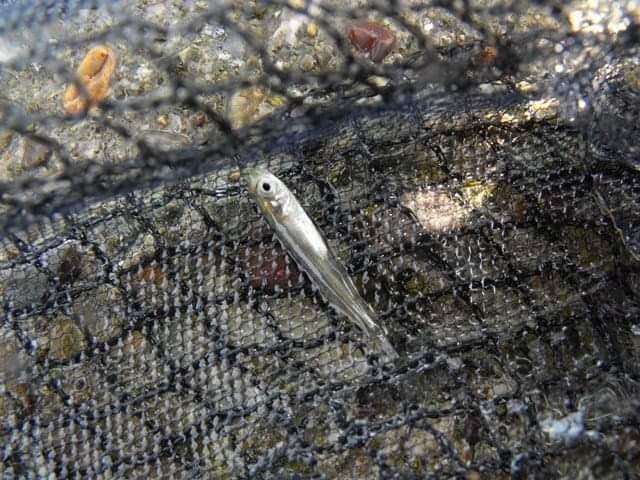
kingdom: Animalia
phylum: Chordata
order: Atheriniformes
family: Atherinidae
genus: Atherina
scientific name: Atherina boyeri
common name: Big-scale sand smelt
